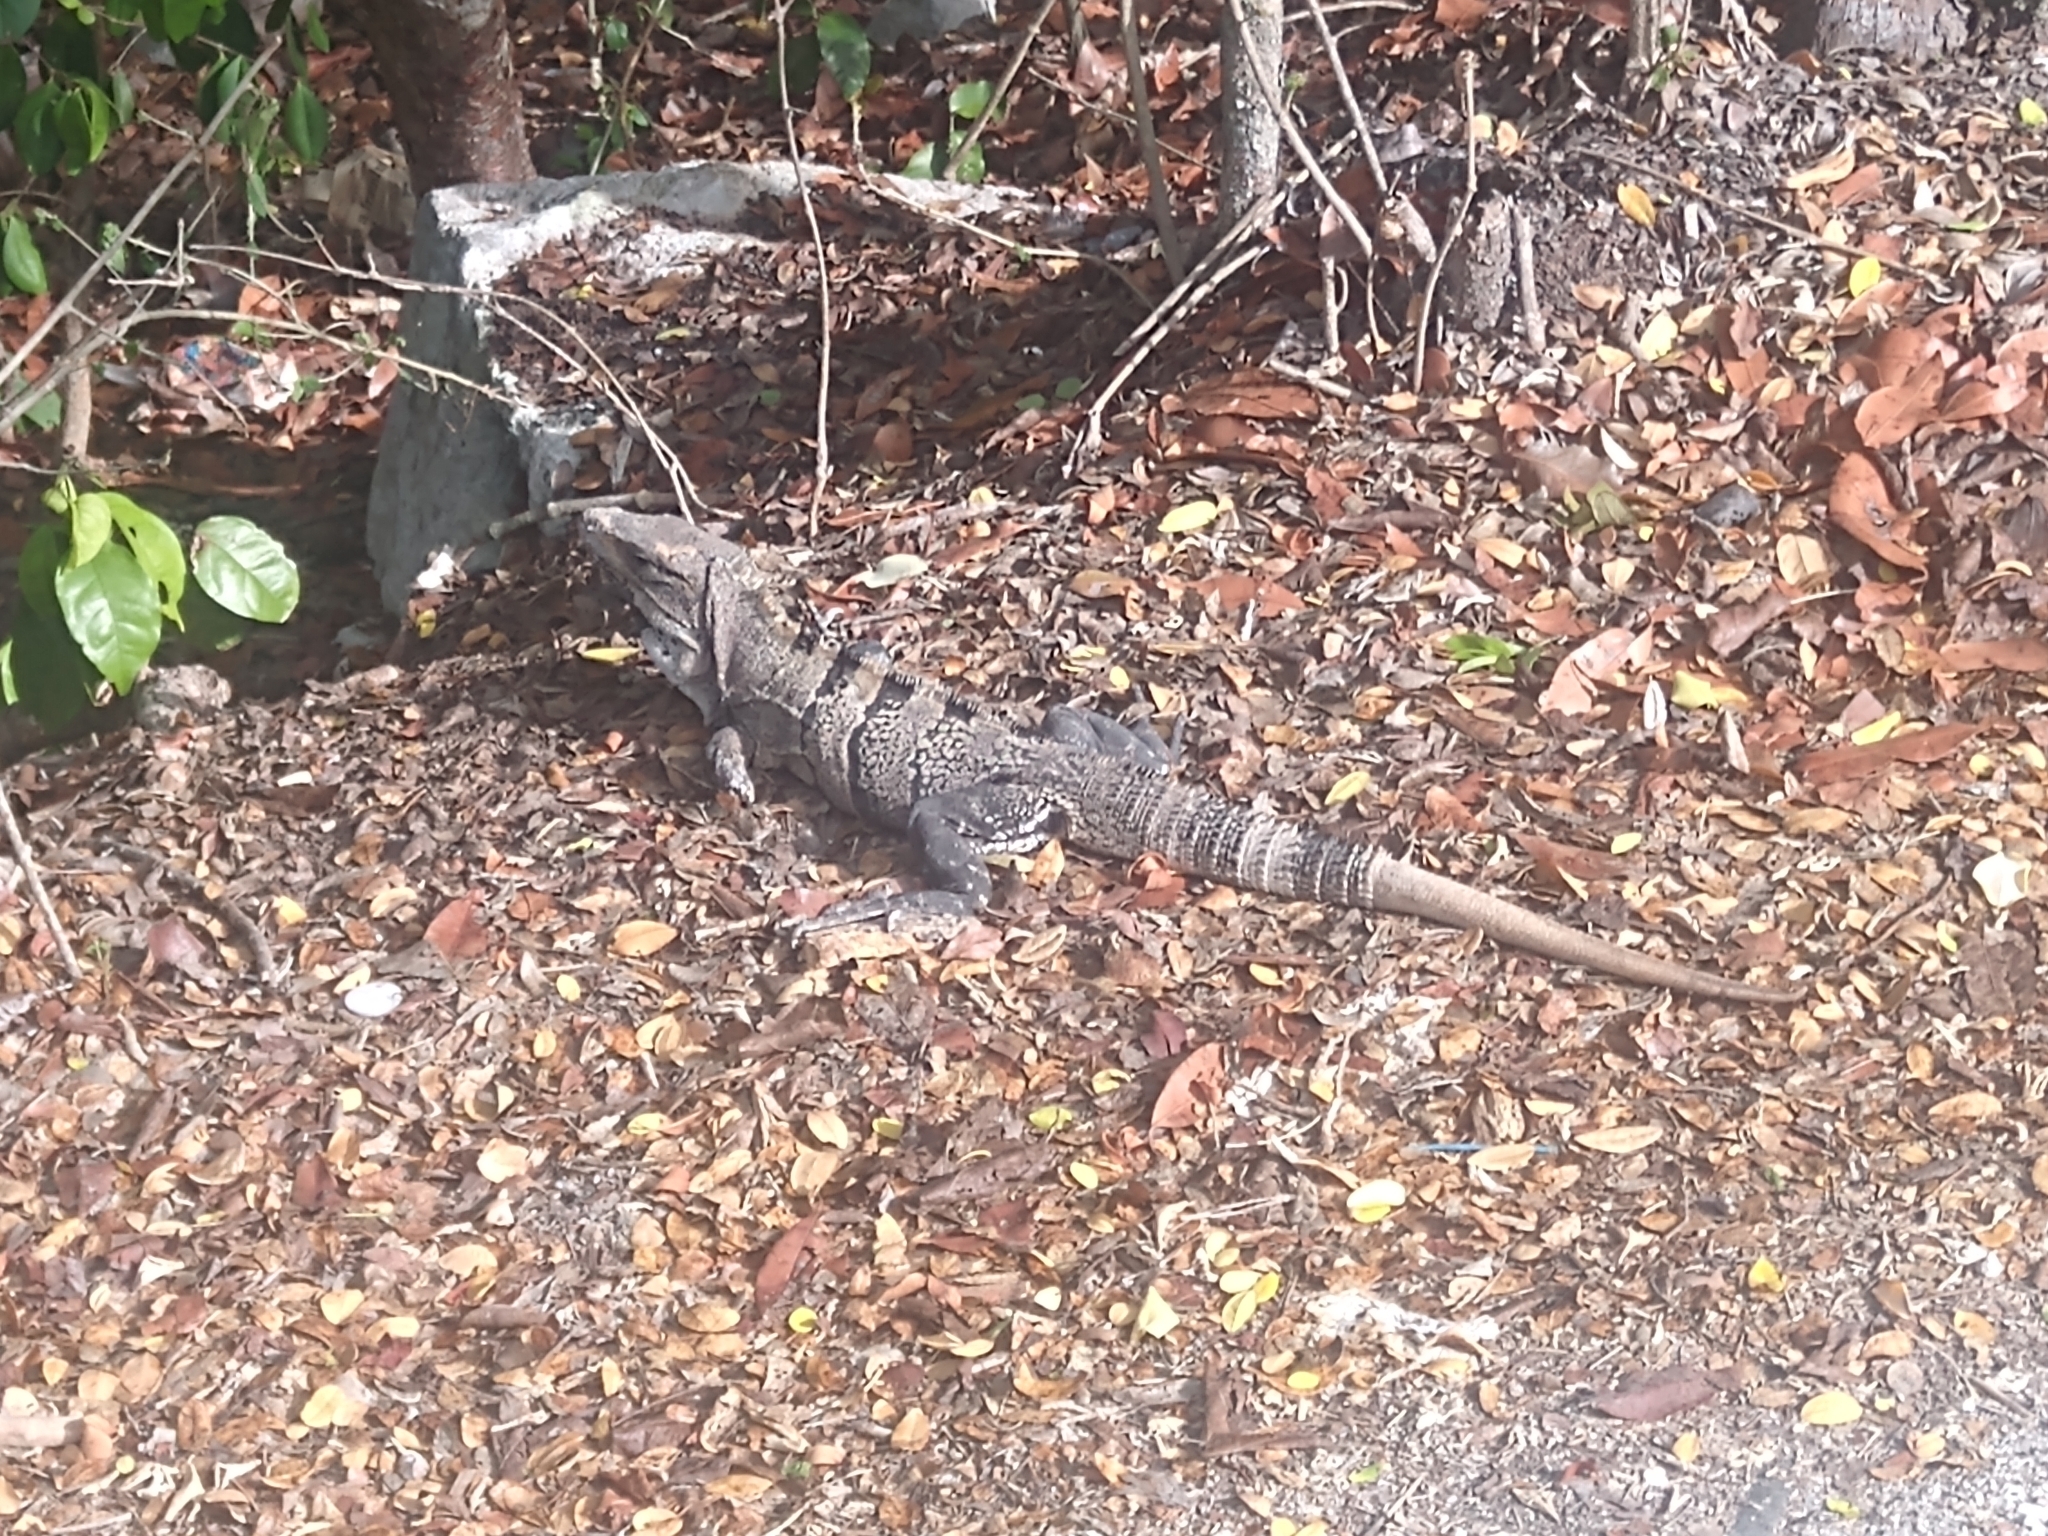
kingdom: Animalia
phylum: Chordata
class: Squamata
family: Iguanidae
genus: Ctenosaura
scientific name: Ctenosaura similis
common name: Black spiny-tailed iguana
